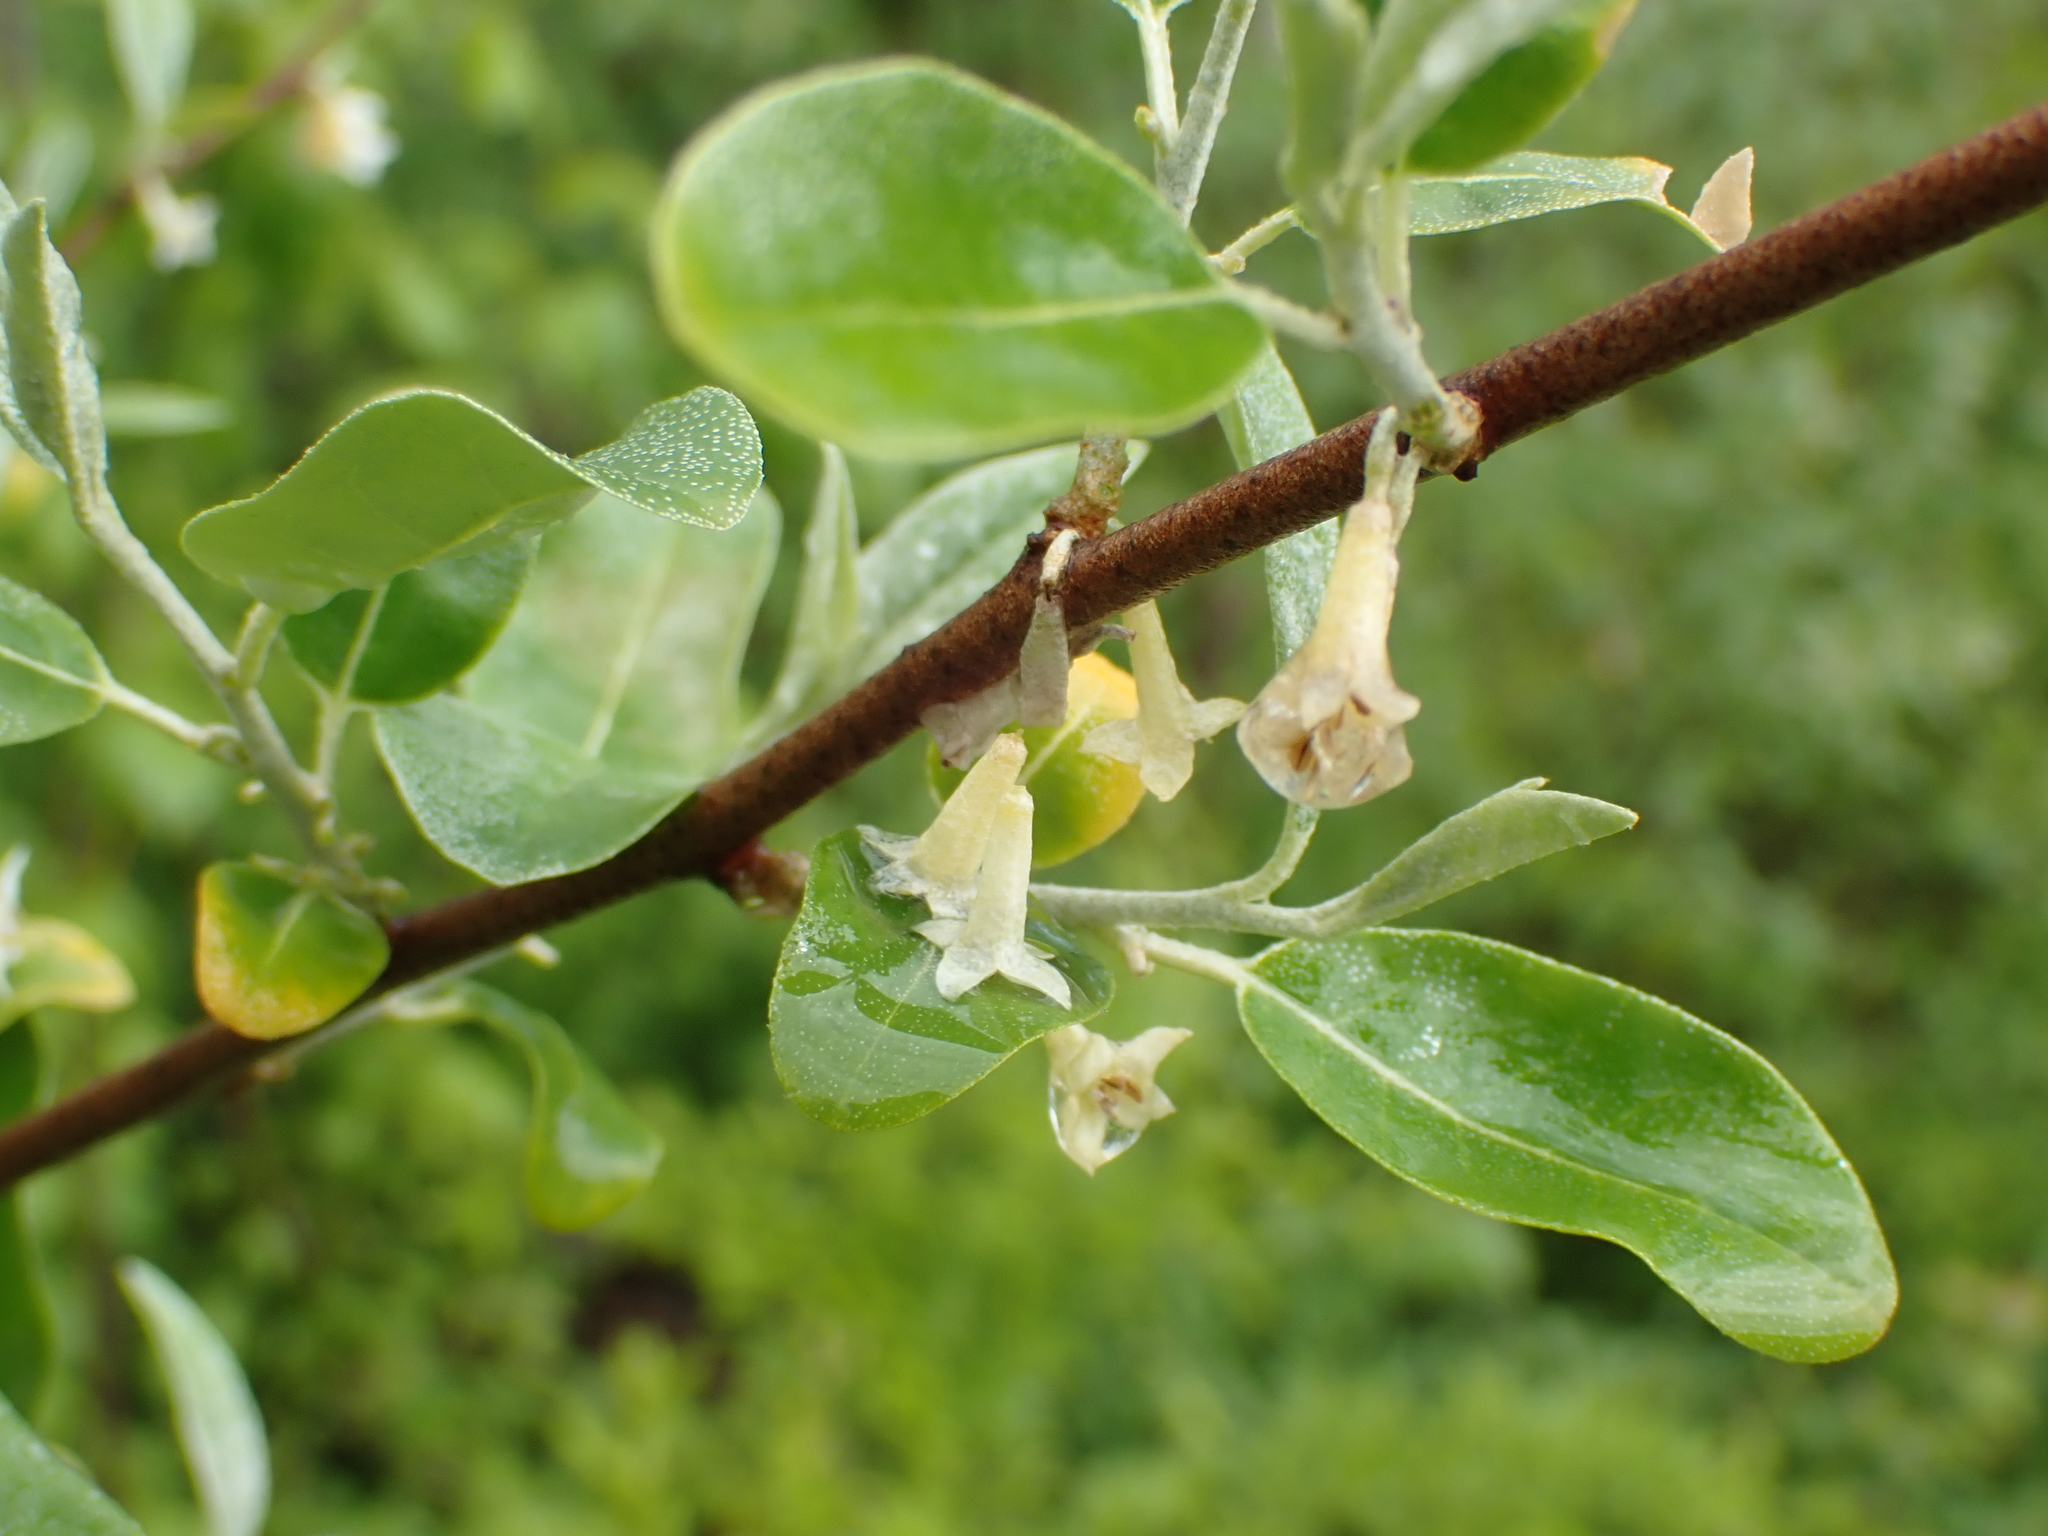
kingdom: Plantae
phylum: Tracheophyta
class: Magnoliopsida
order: Rosales
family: Elaeagnaceae
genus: Elaeagnus
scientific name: Elaeagnus umbellata
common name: Autumn olive
